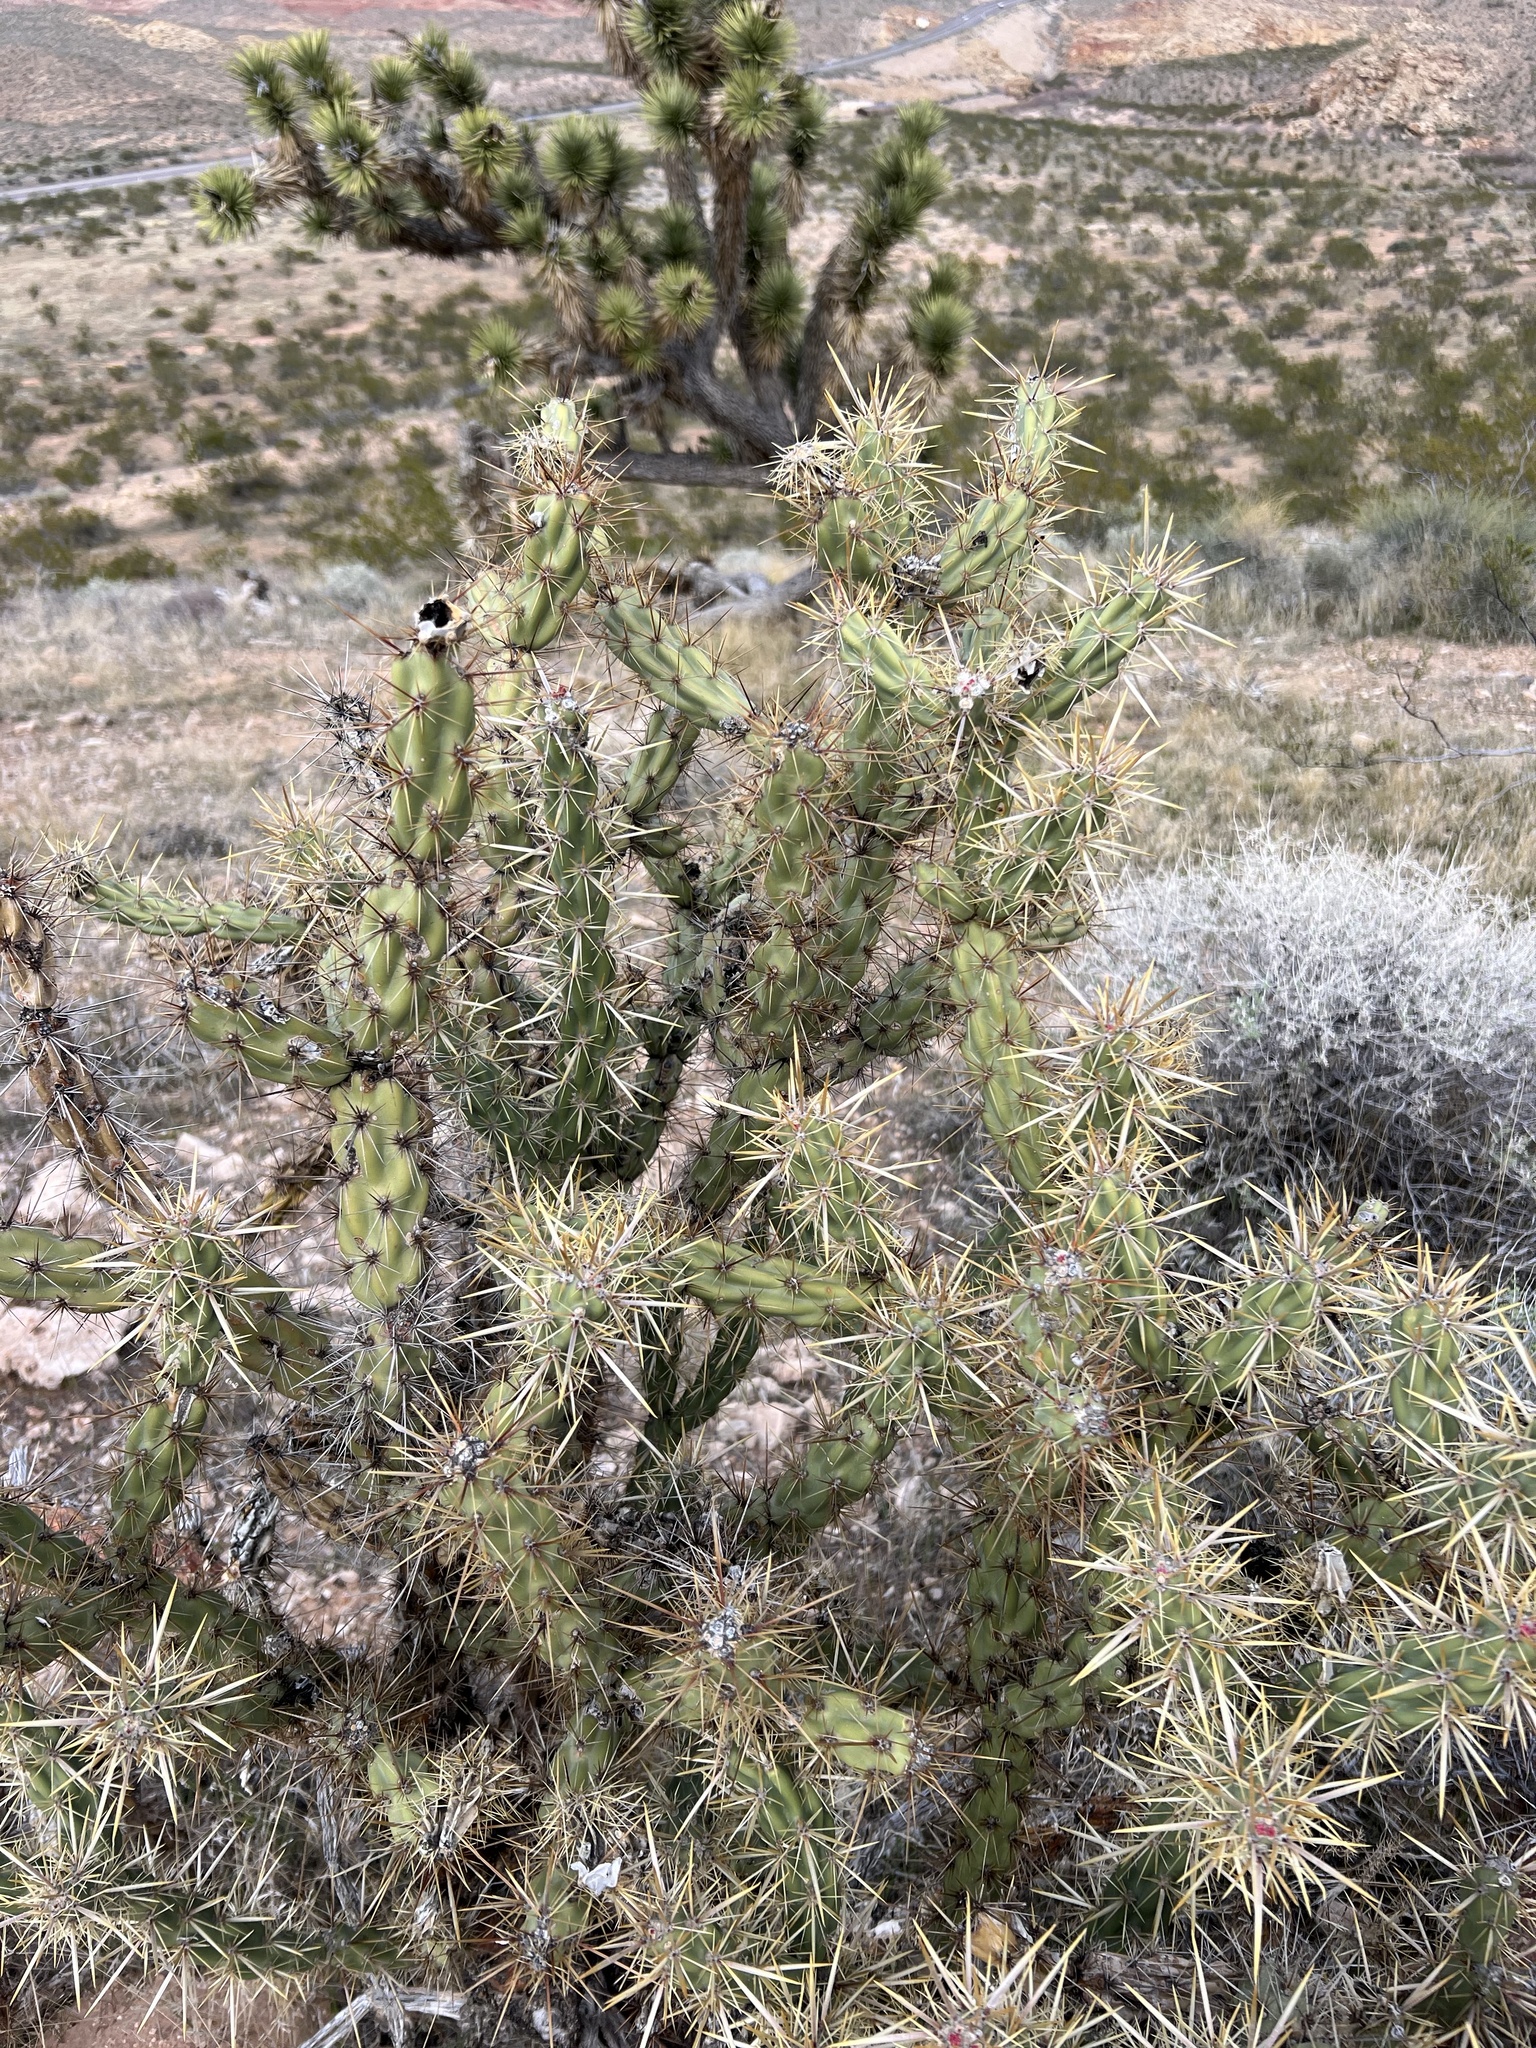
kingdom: Plantae
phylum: Tracheophyta
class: Magnoliopsida
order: Caryophyllales
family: Cactaceae
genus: Cylindropuntia
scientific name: Cylindropuntia acanthocarpa
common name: Buckhorn cholla
